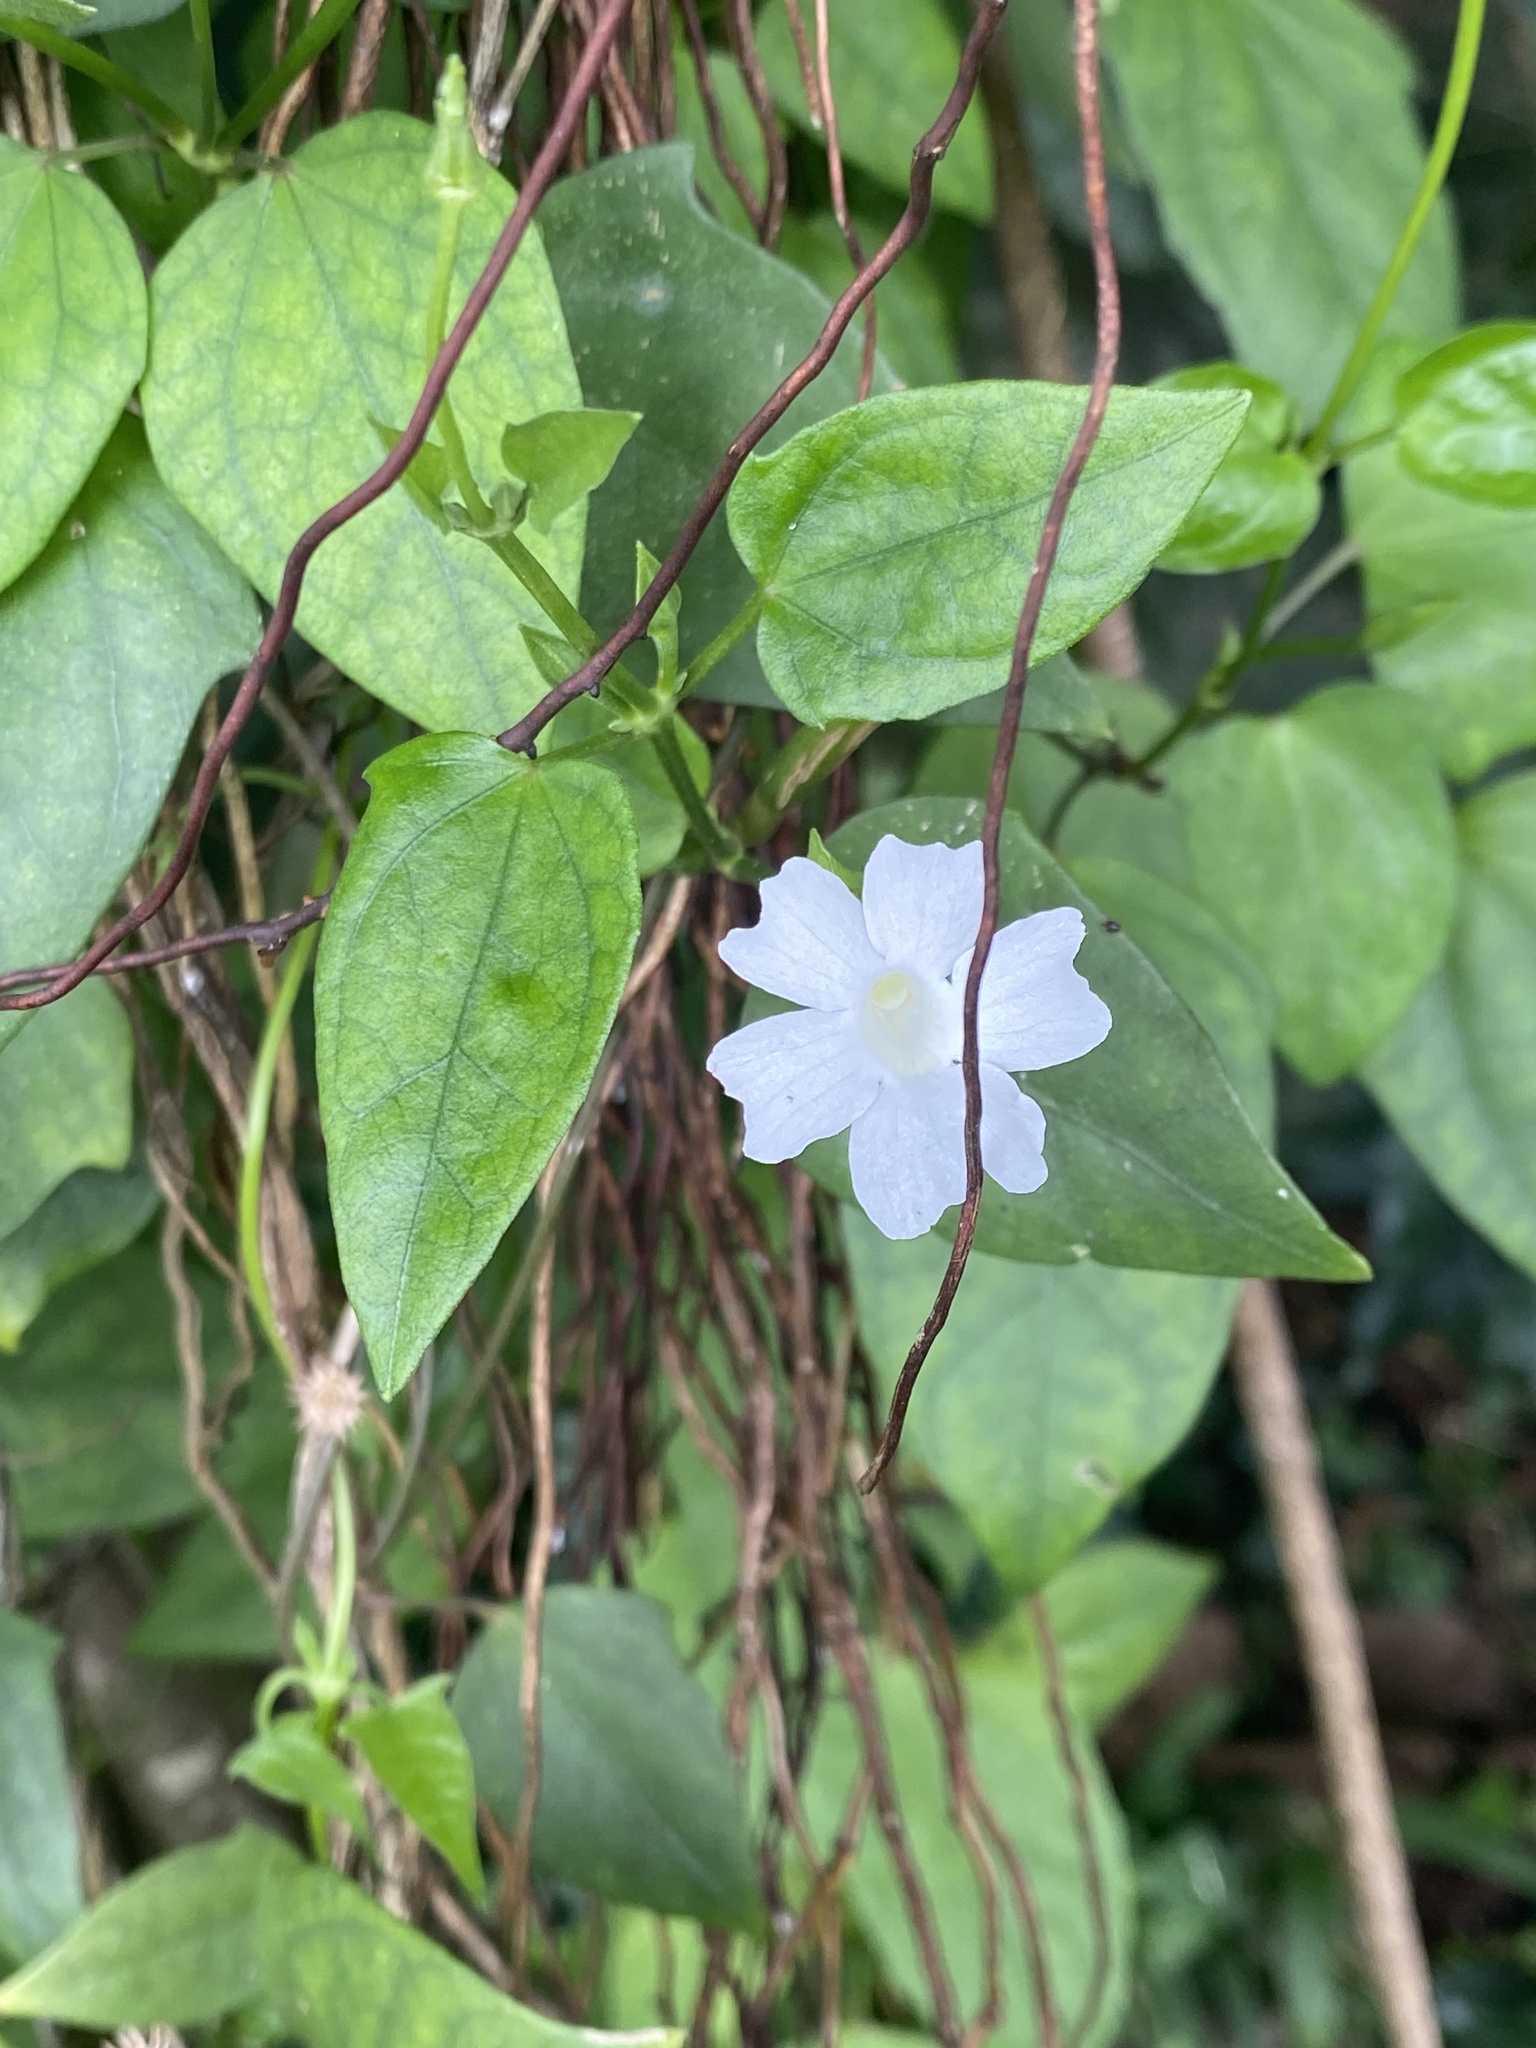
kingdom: Plantae
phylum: Tracheophyta
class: Magnoliopsida
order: Lamiales
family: Acanthaceae
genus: Thunbergia
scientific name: Thunbergia fragrans
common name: Whitelady
